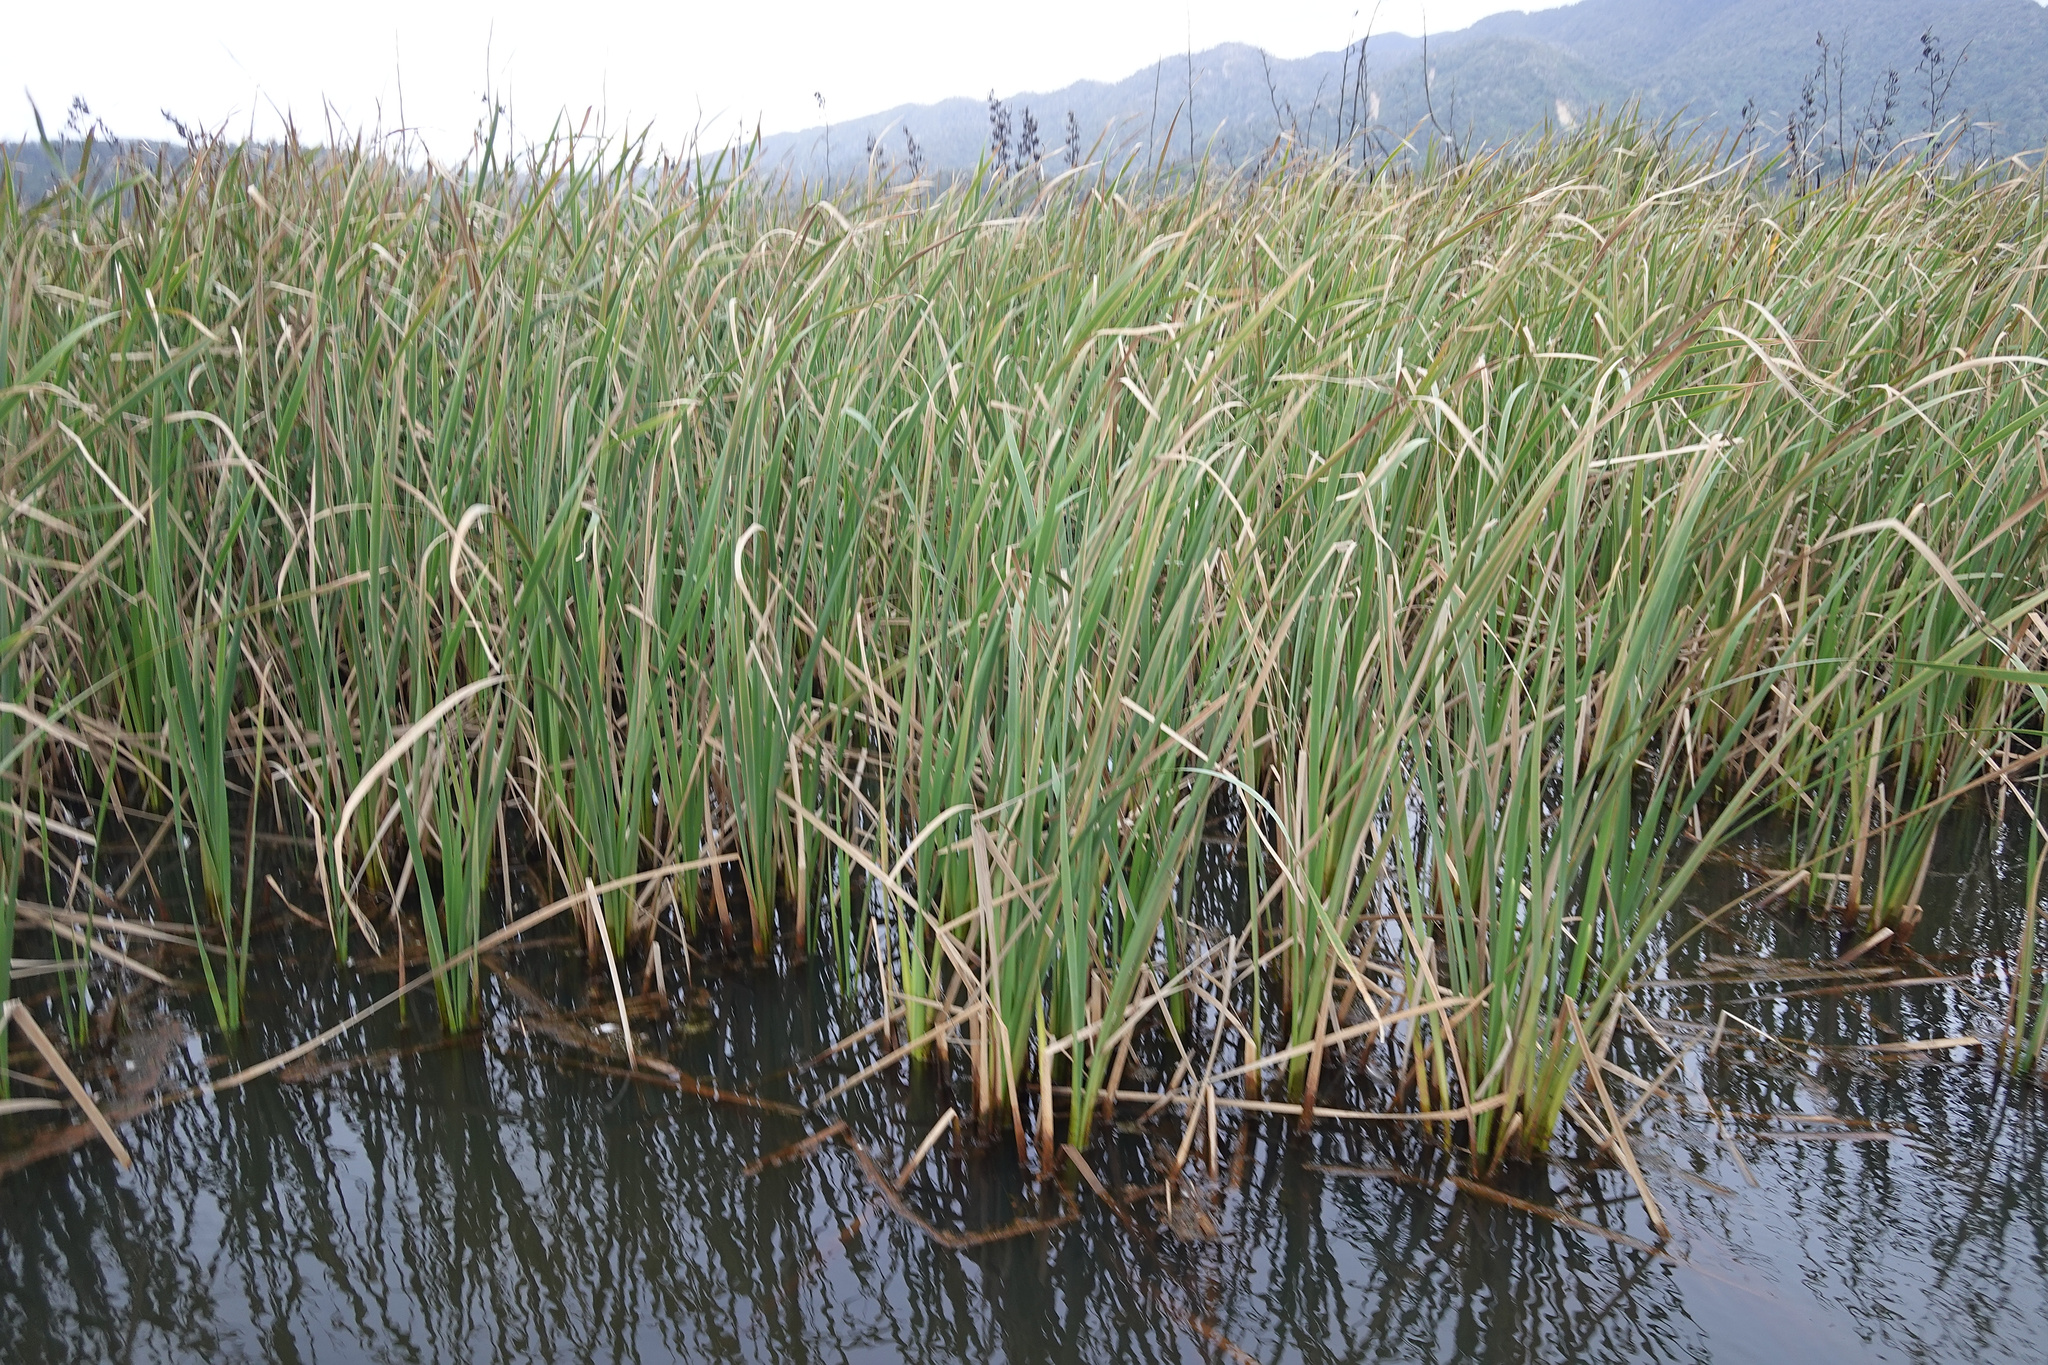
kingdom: Plantae
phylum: Tracheophyta
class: Liliopsida
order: Poales
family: Typhaceae
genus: Typha
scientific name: Typha orientalis
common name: Bullrush
